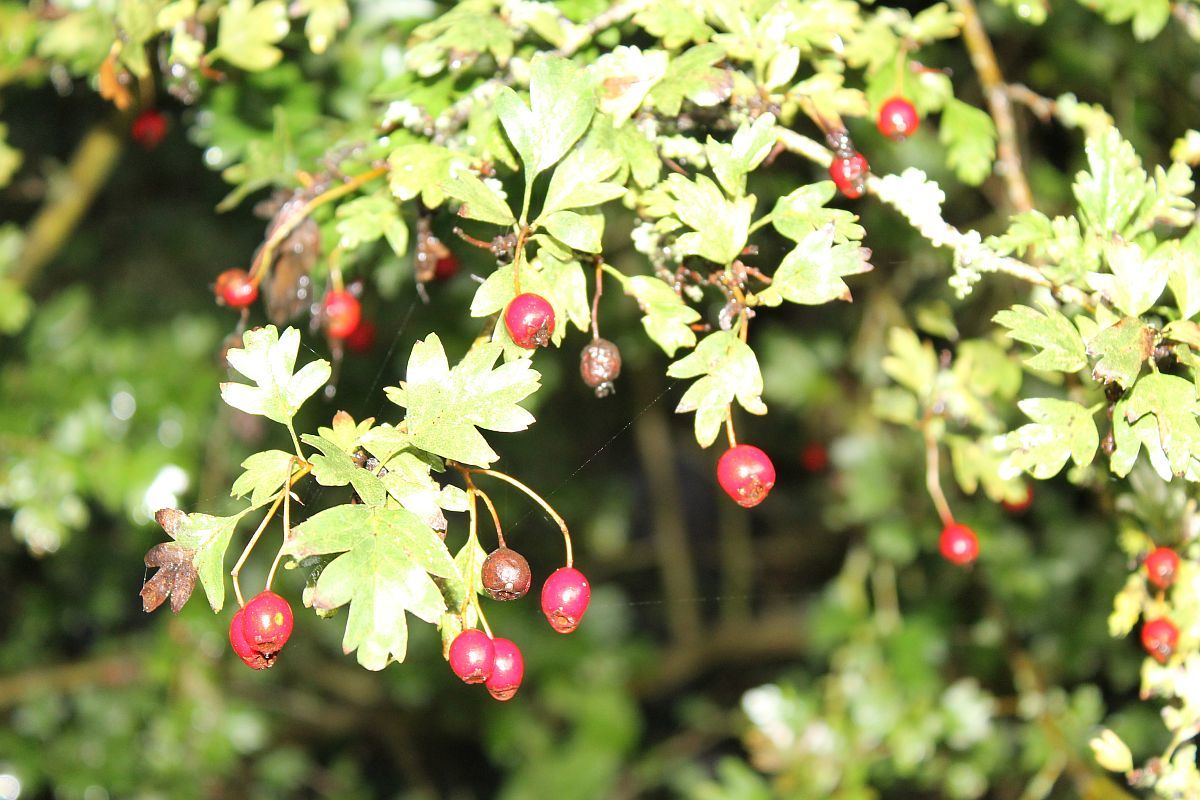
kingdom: Plantae
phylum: Tracheophyta
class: Magnoliopsida
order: Rosales
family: Rosaceae
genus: Crataegus
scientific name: Crataegus monogyna
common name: Hawthorn
